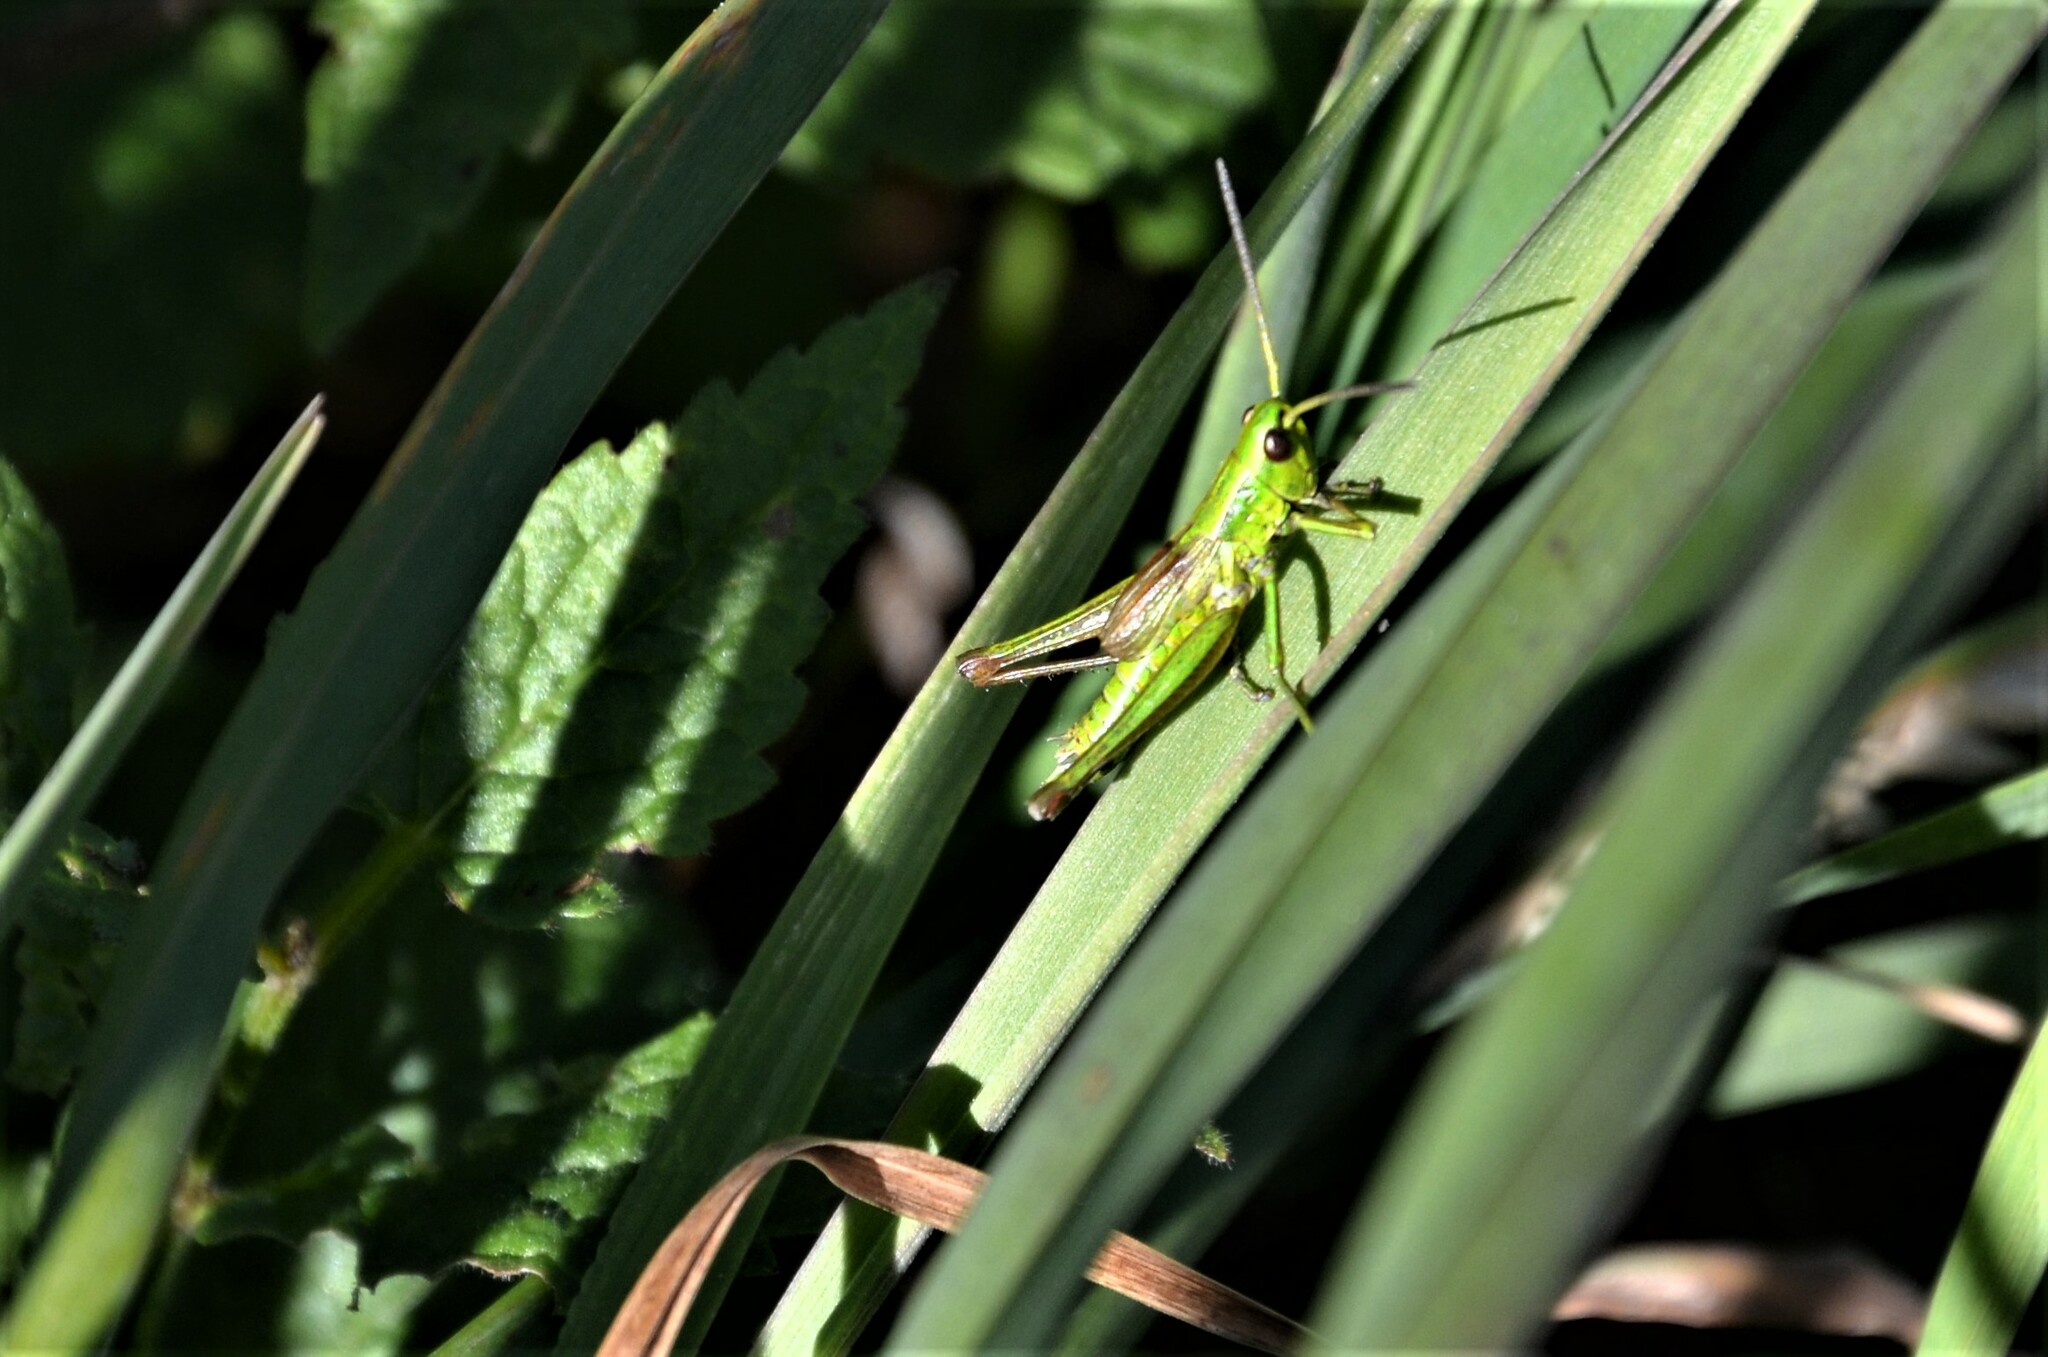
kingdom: Animalia
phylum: Arthropoda
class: Insecta
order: Orthoptera
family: Acrididae
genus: Euthystira
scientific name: Euthystira brachyptera
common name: Small gold grasshopper
